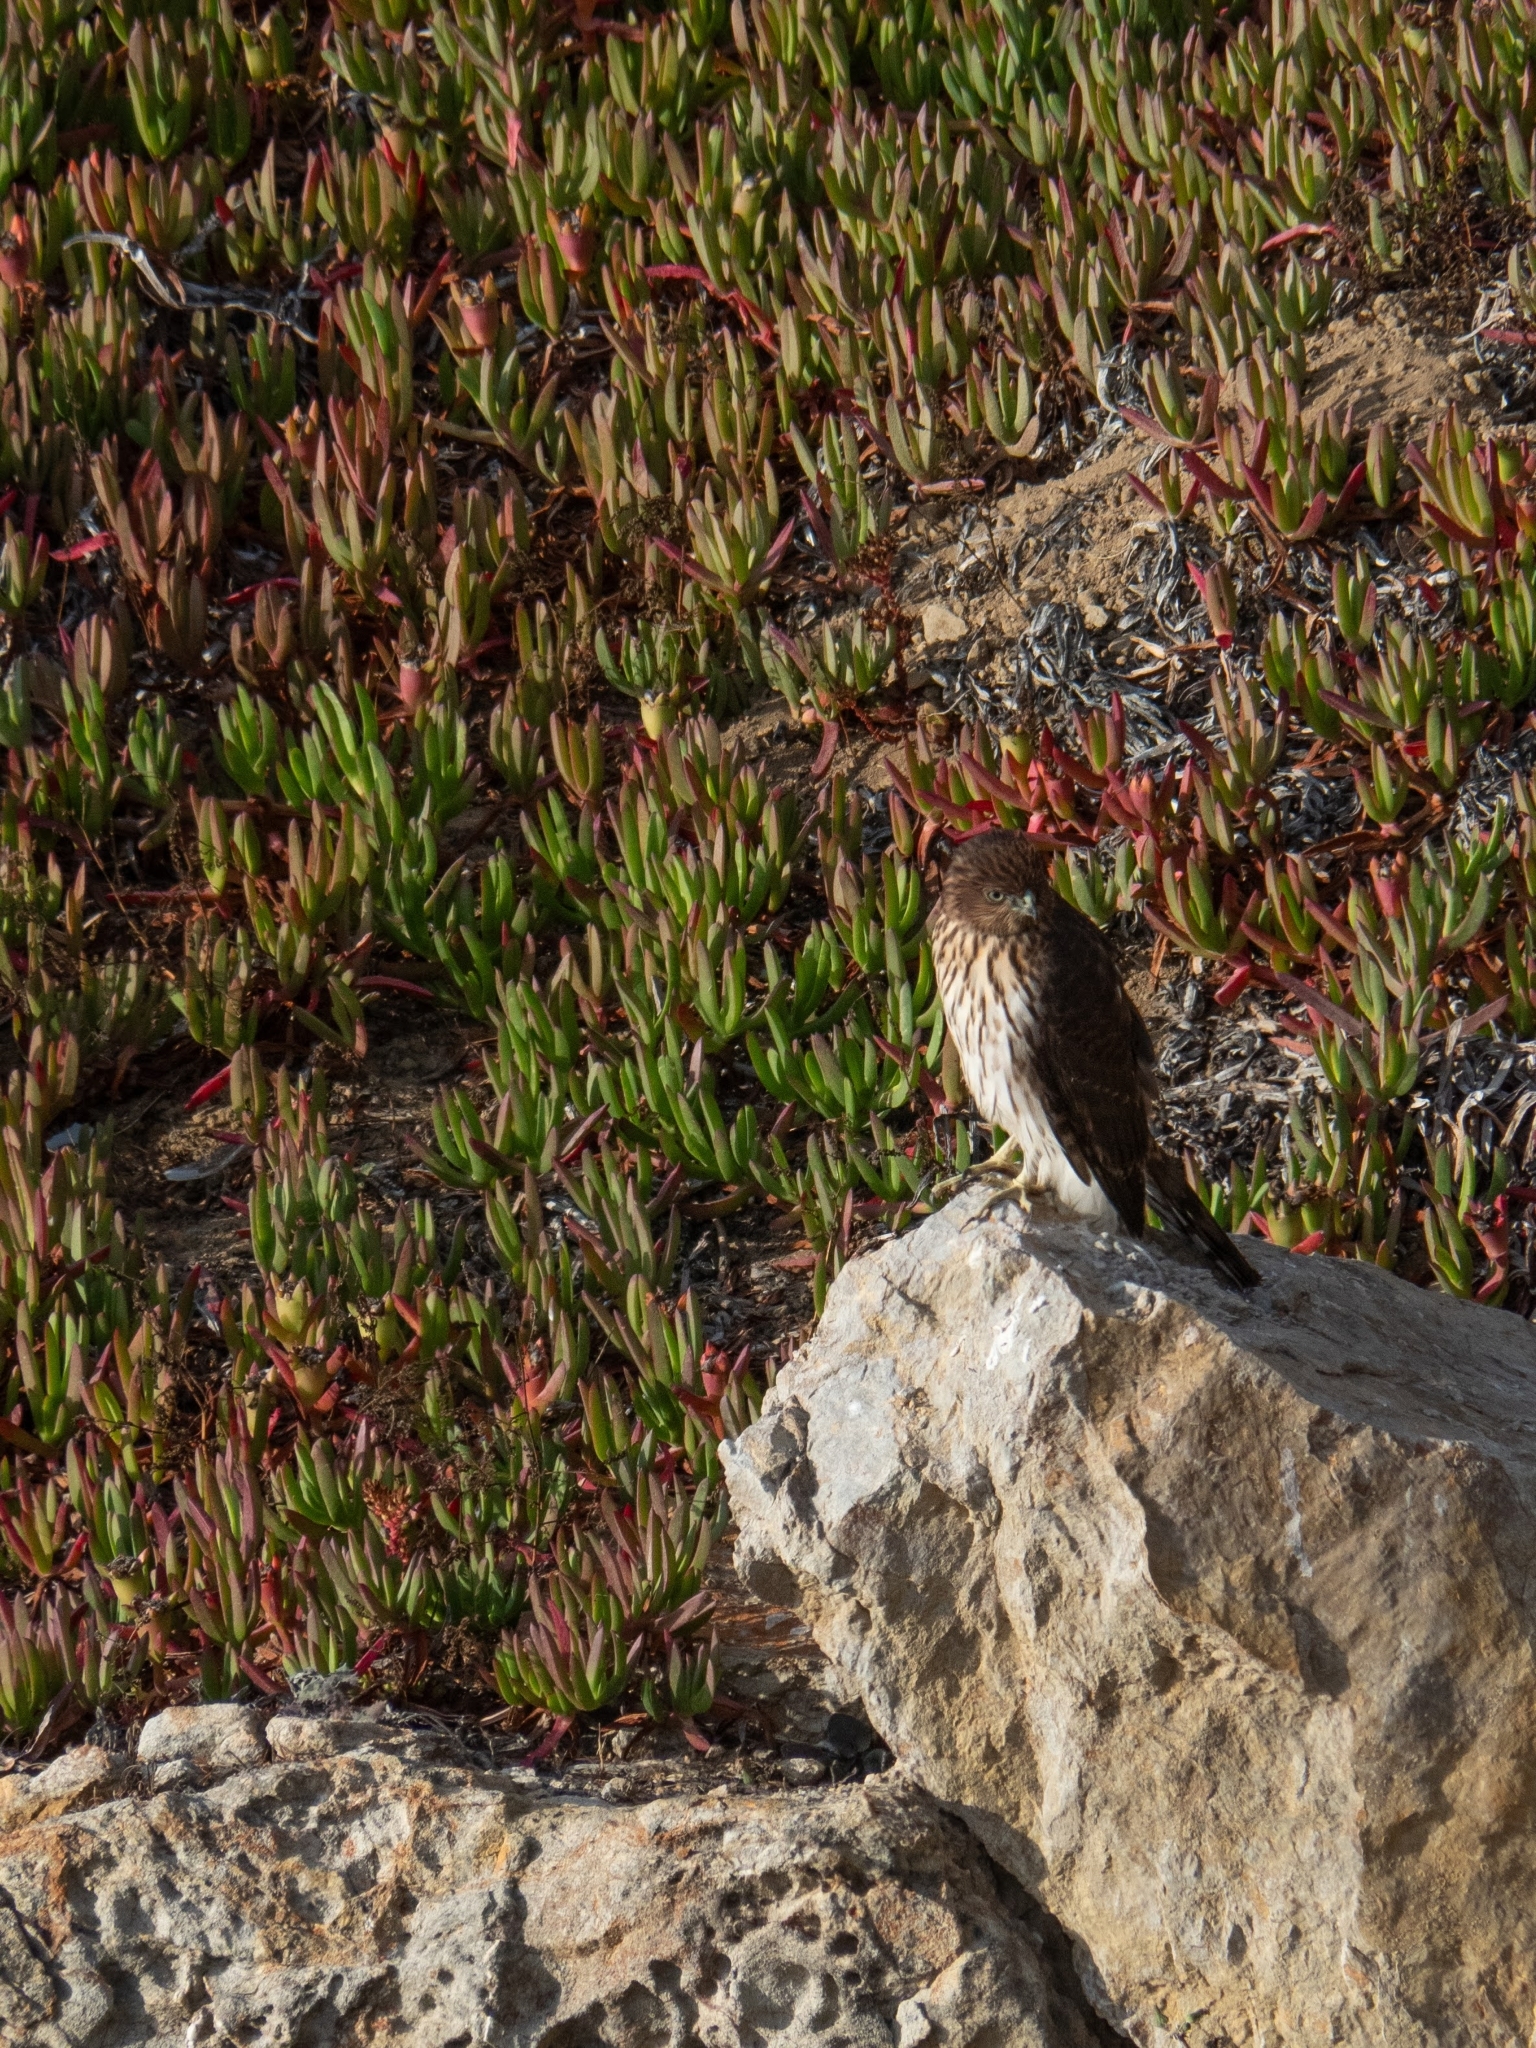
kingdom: Animalia
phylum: Chordata
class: Aves
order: Accipitriformes
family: Accipitridae
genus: Accipiter
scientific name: Accipiter cooperii
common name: Cooper's hawk
